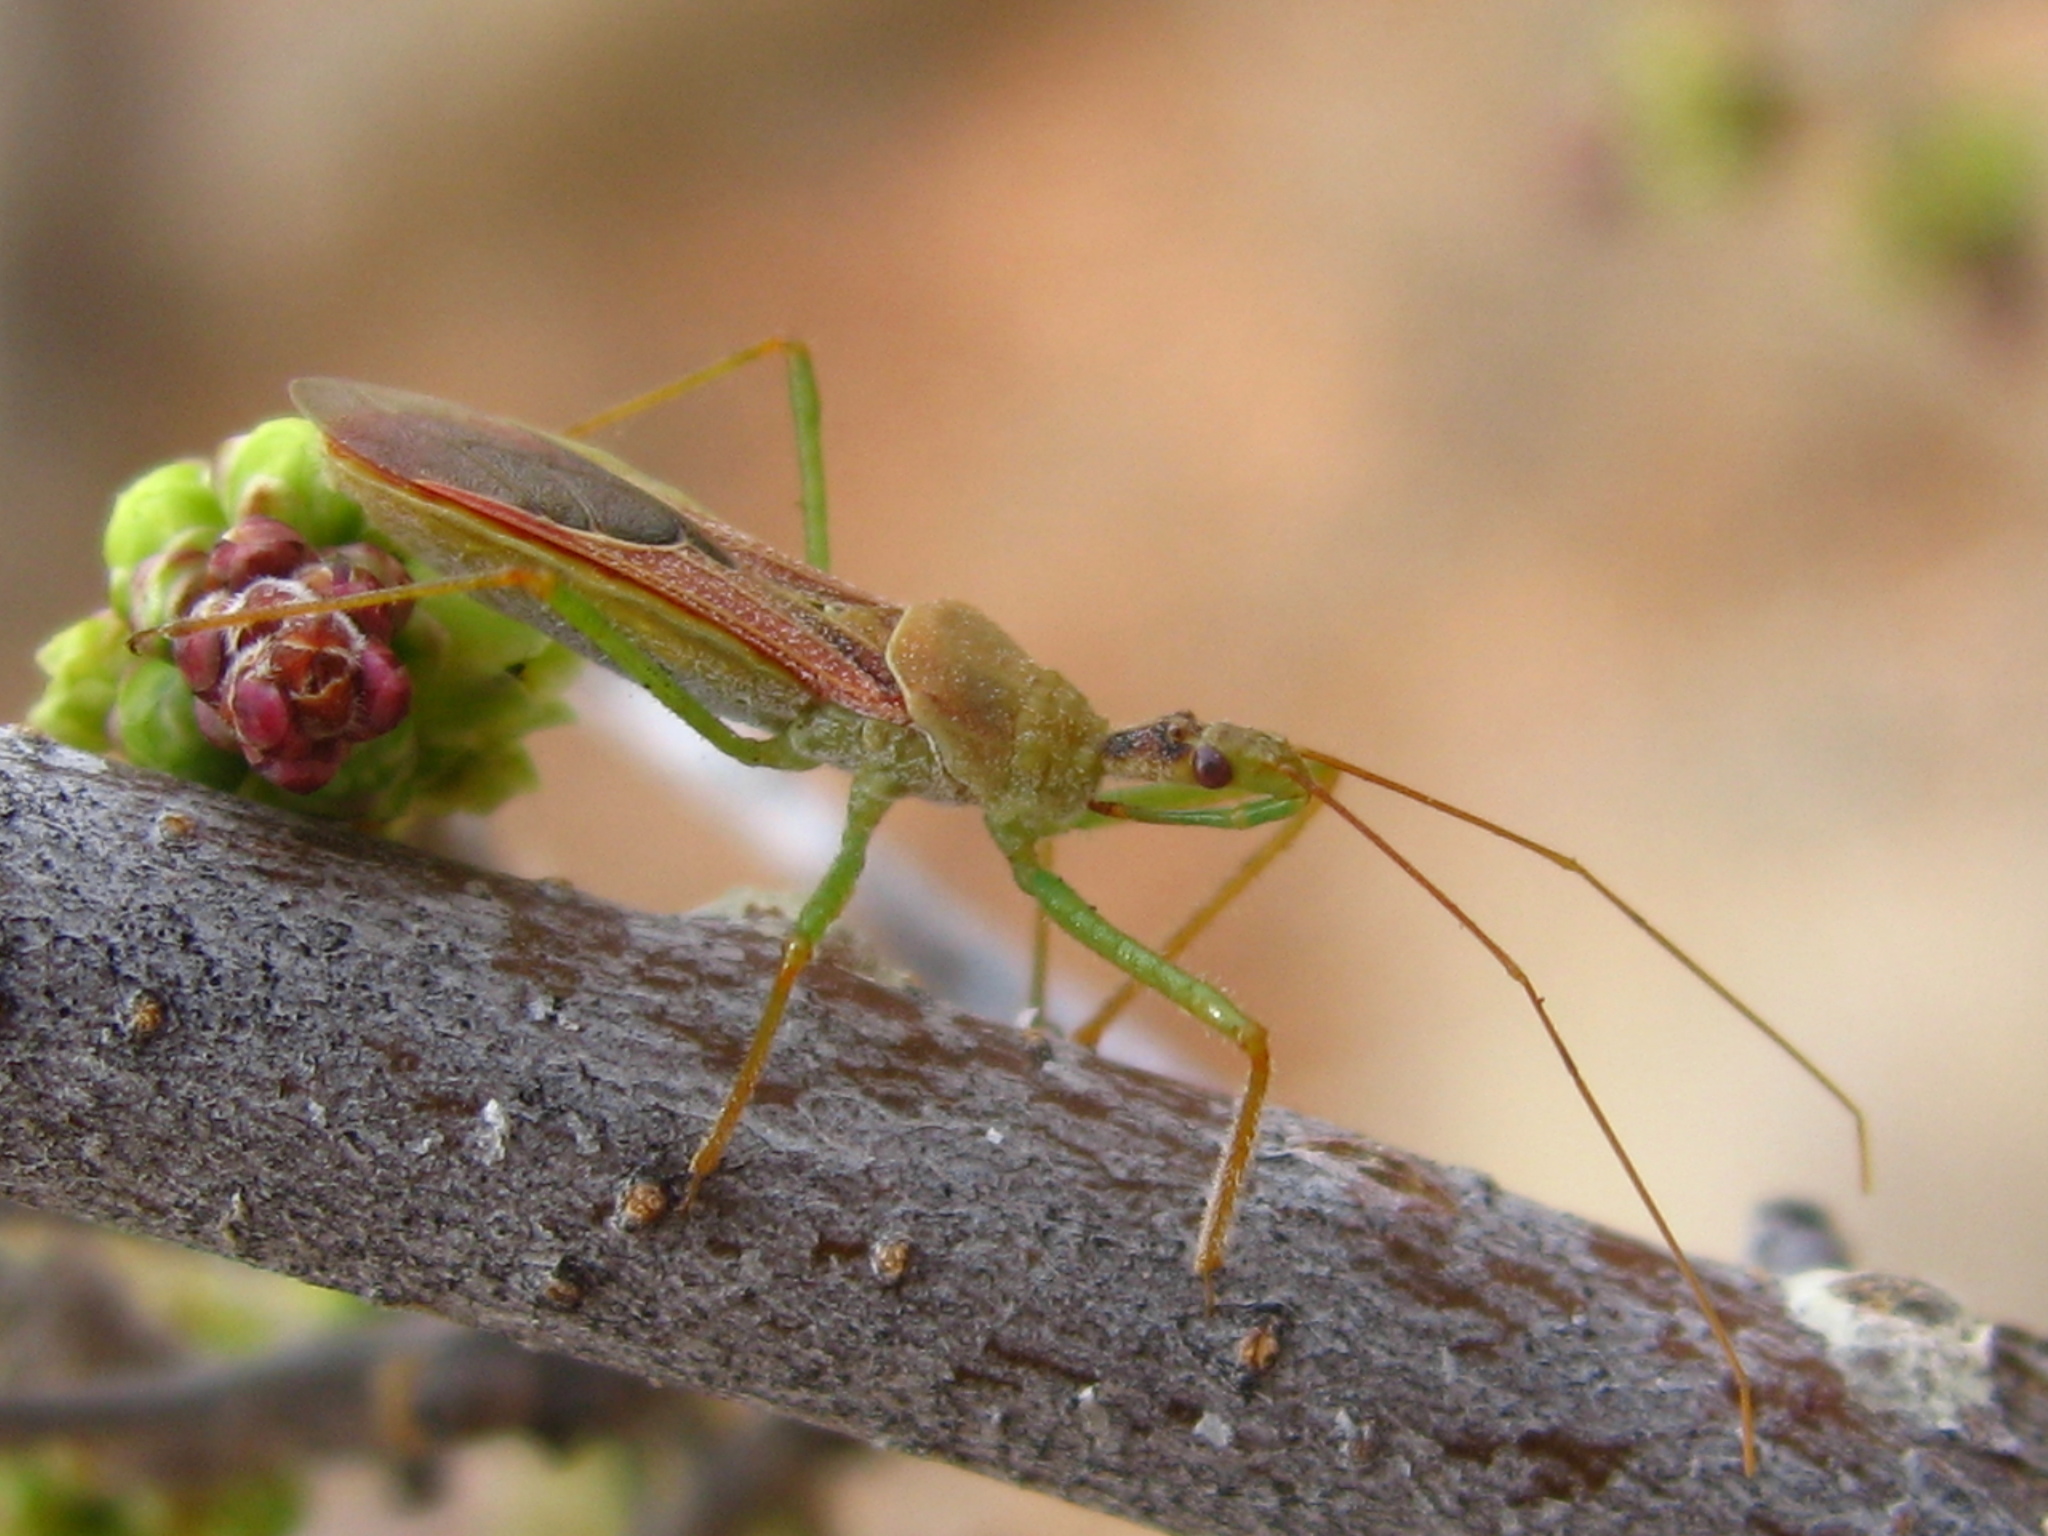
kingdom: Animalia
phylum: Arthropoda
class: Insecta
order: Hemiptera
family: Reduviidae
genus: Zelus
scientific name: Zelus renardii
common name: Assassin bug
